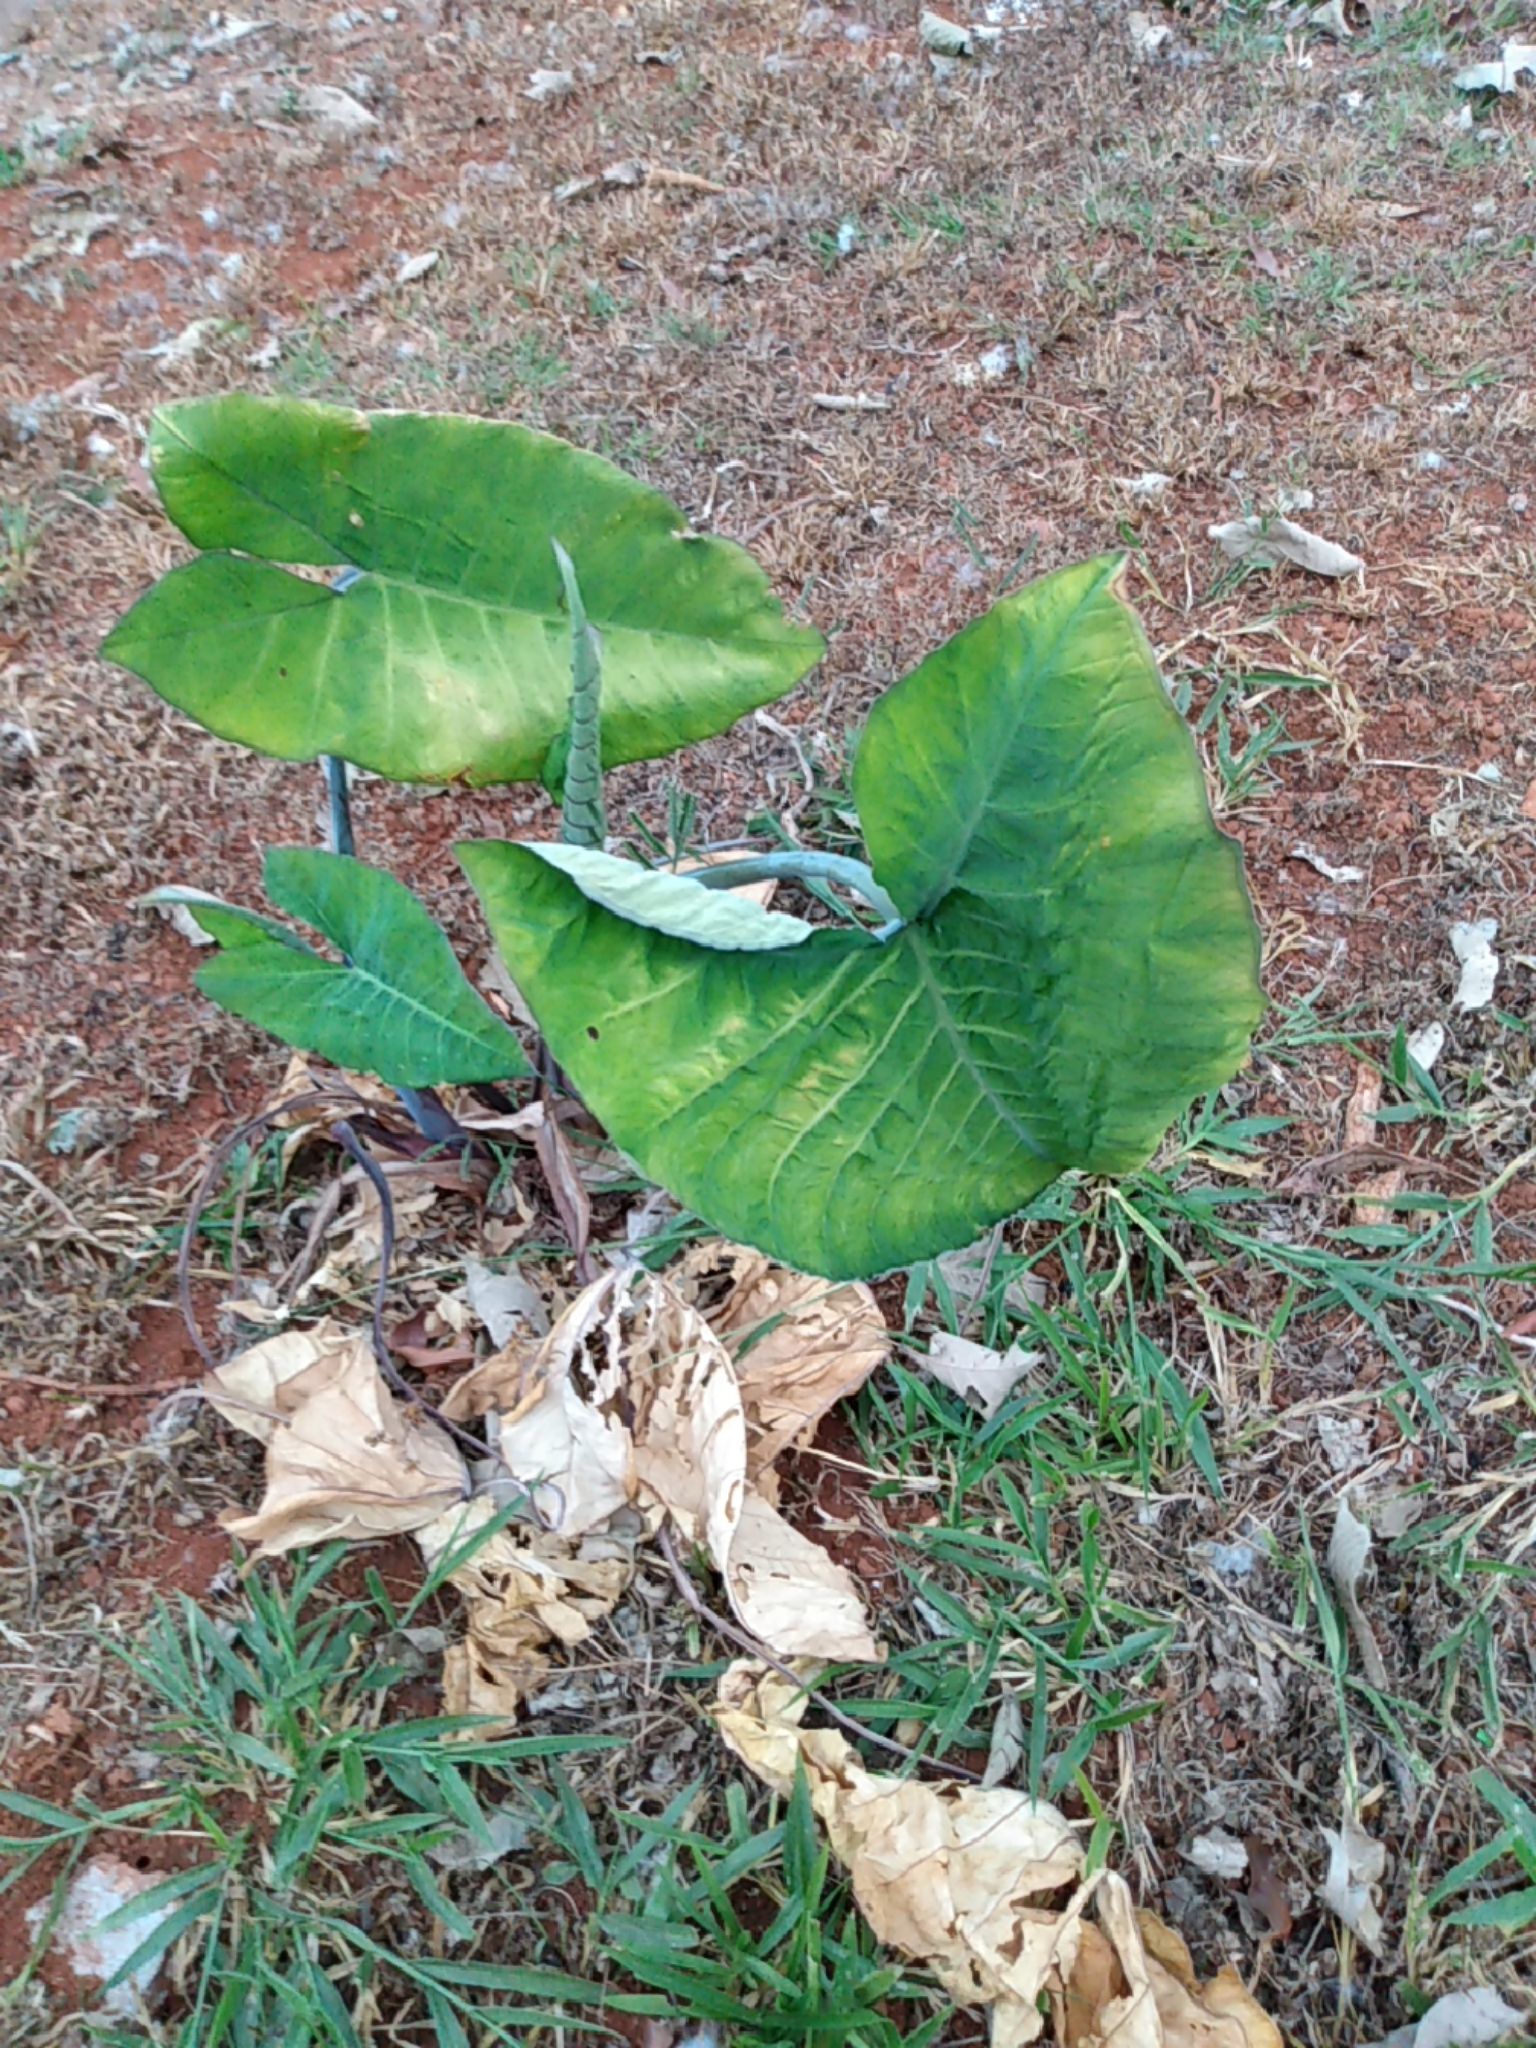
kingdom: Plantae
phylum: Tracheophyta
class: Liliopsida
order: Alismatales
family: Araceae
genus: Xanthosoma
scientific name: Xanthosoma robustum
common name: Capote
